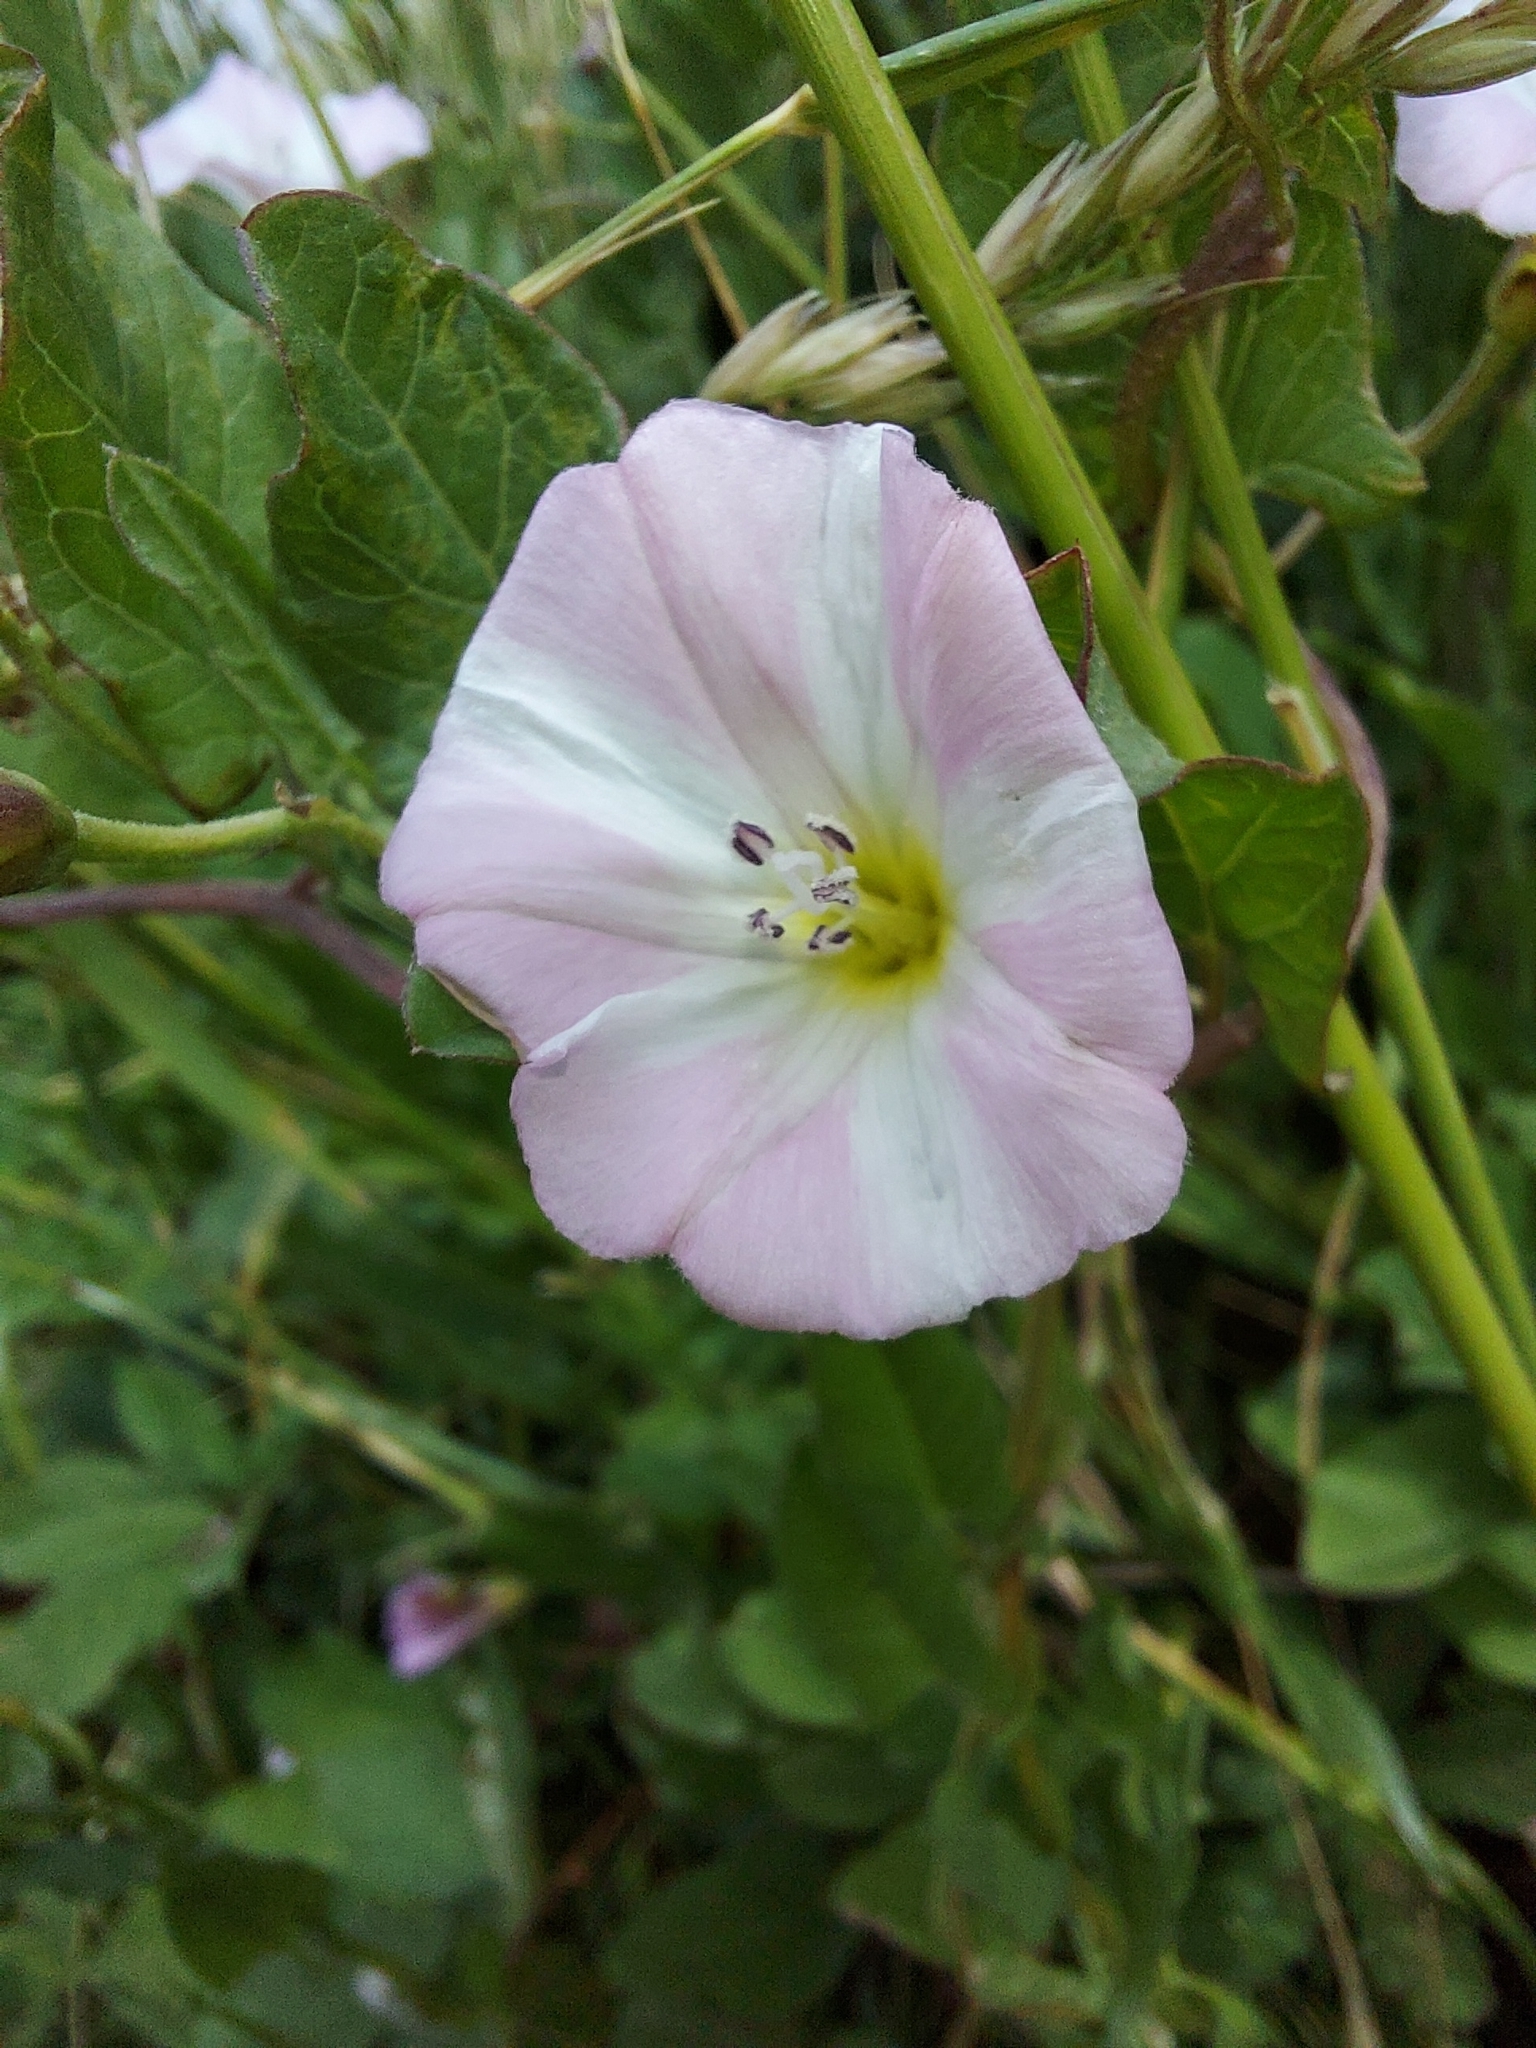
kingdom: Plantae
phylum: Tracheophyta
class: Magnoliopsida
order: Solanales
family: Convolvulaceae
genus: Convolvulus
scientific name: Convolvulus arvensis
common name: Field bindweed
